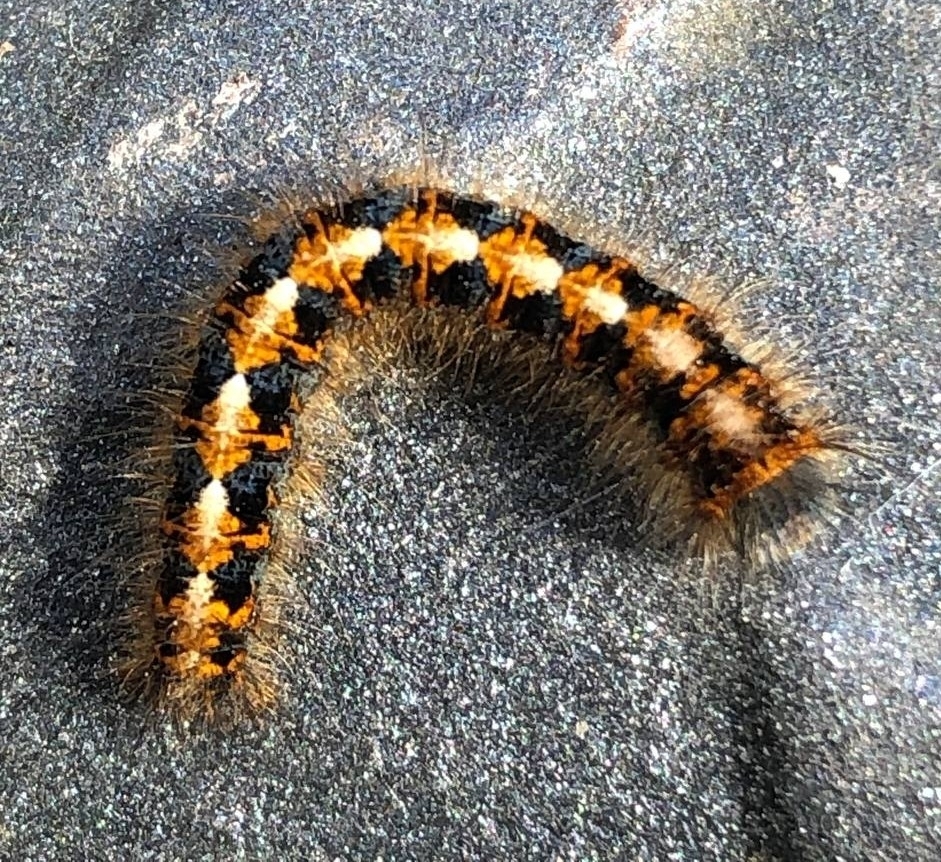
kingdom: Animalia
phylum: Arthropoda
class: Insecta
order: Lepidoptera
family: Lasiocampidae
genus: Lasiocampa
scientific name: Lasiocampa quercus
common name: Oak eggar
